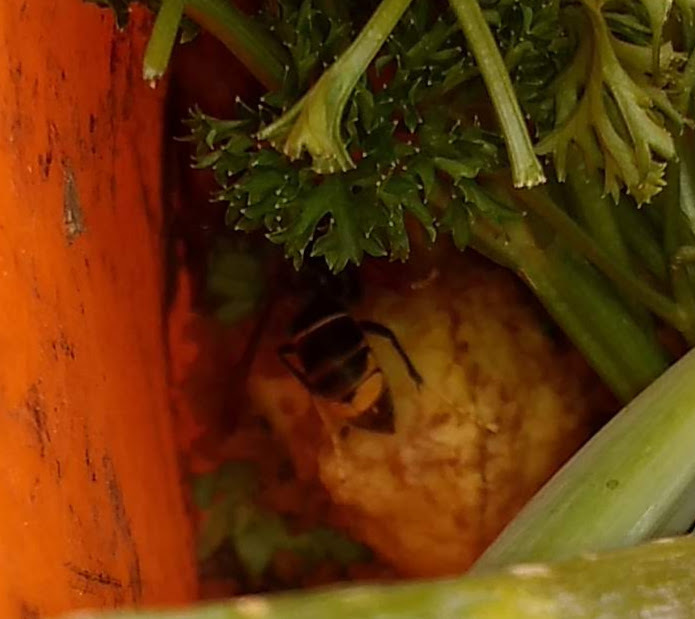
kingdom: Animalia
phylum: Arthropoda
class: Insecta
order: Hymenoptera
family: Vespidae
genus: Vespa
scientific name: Vespa velutina
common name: Asian hornet
